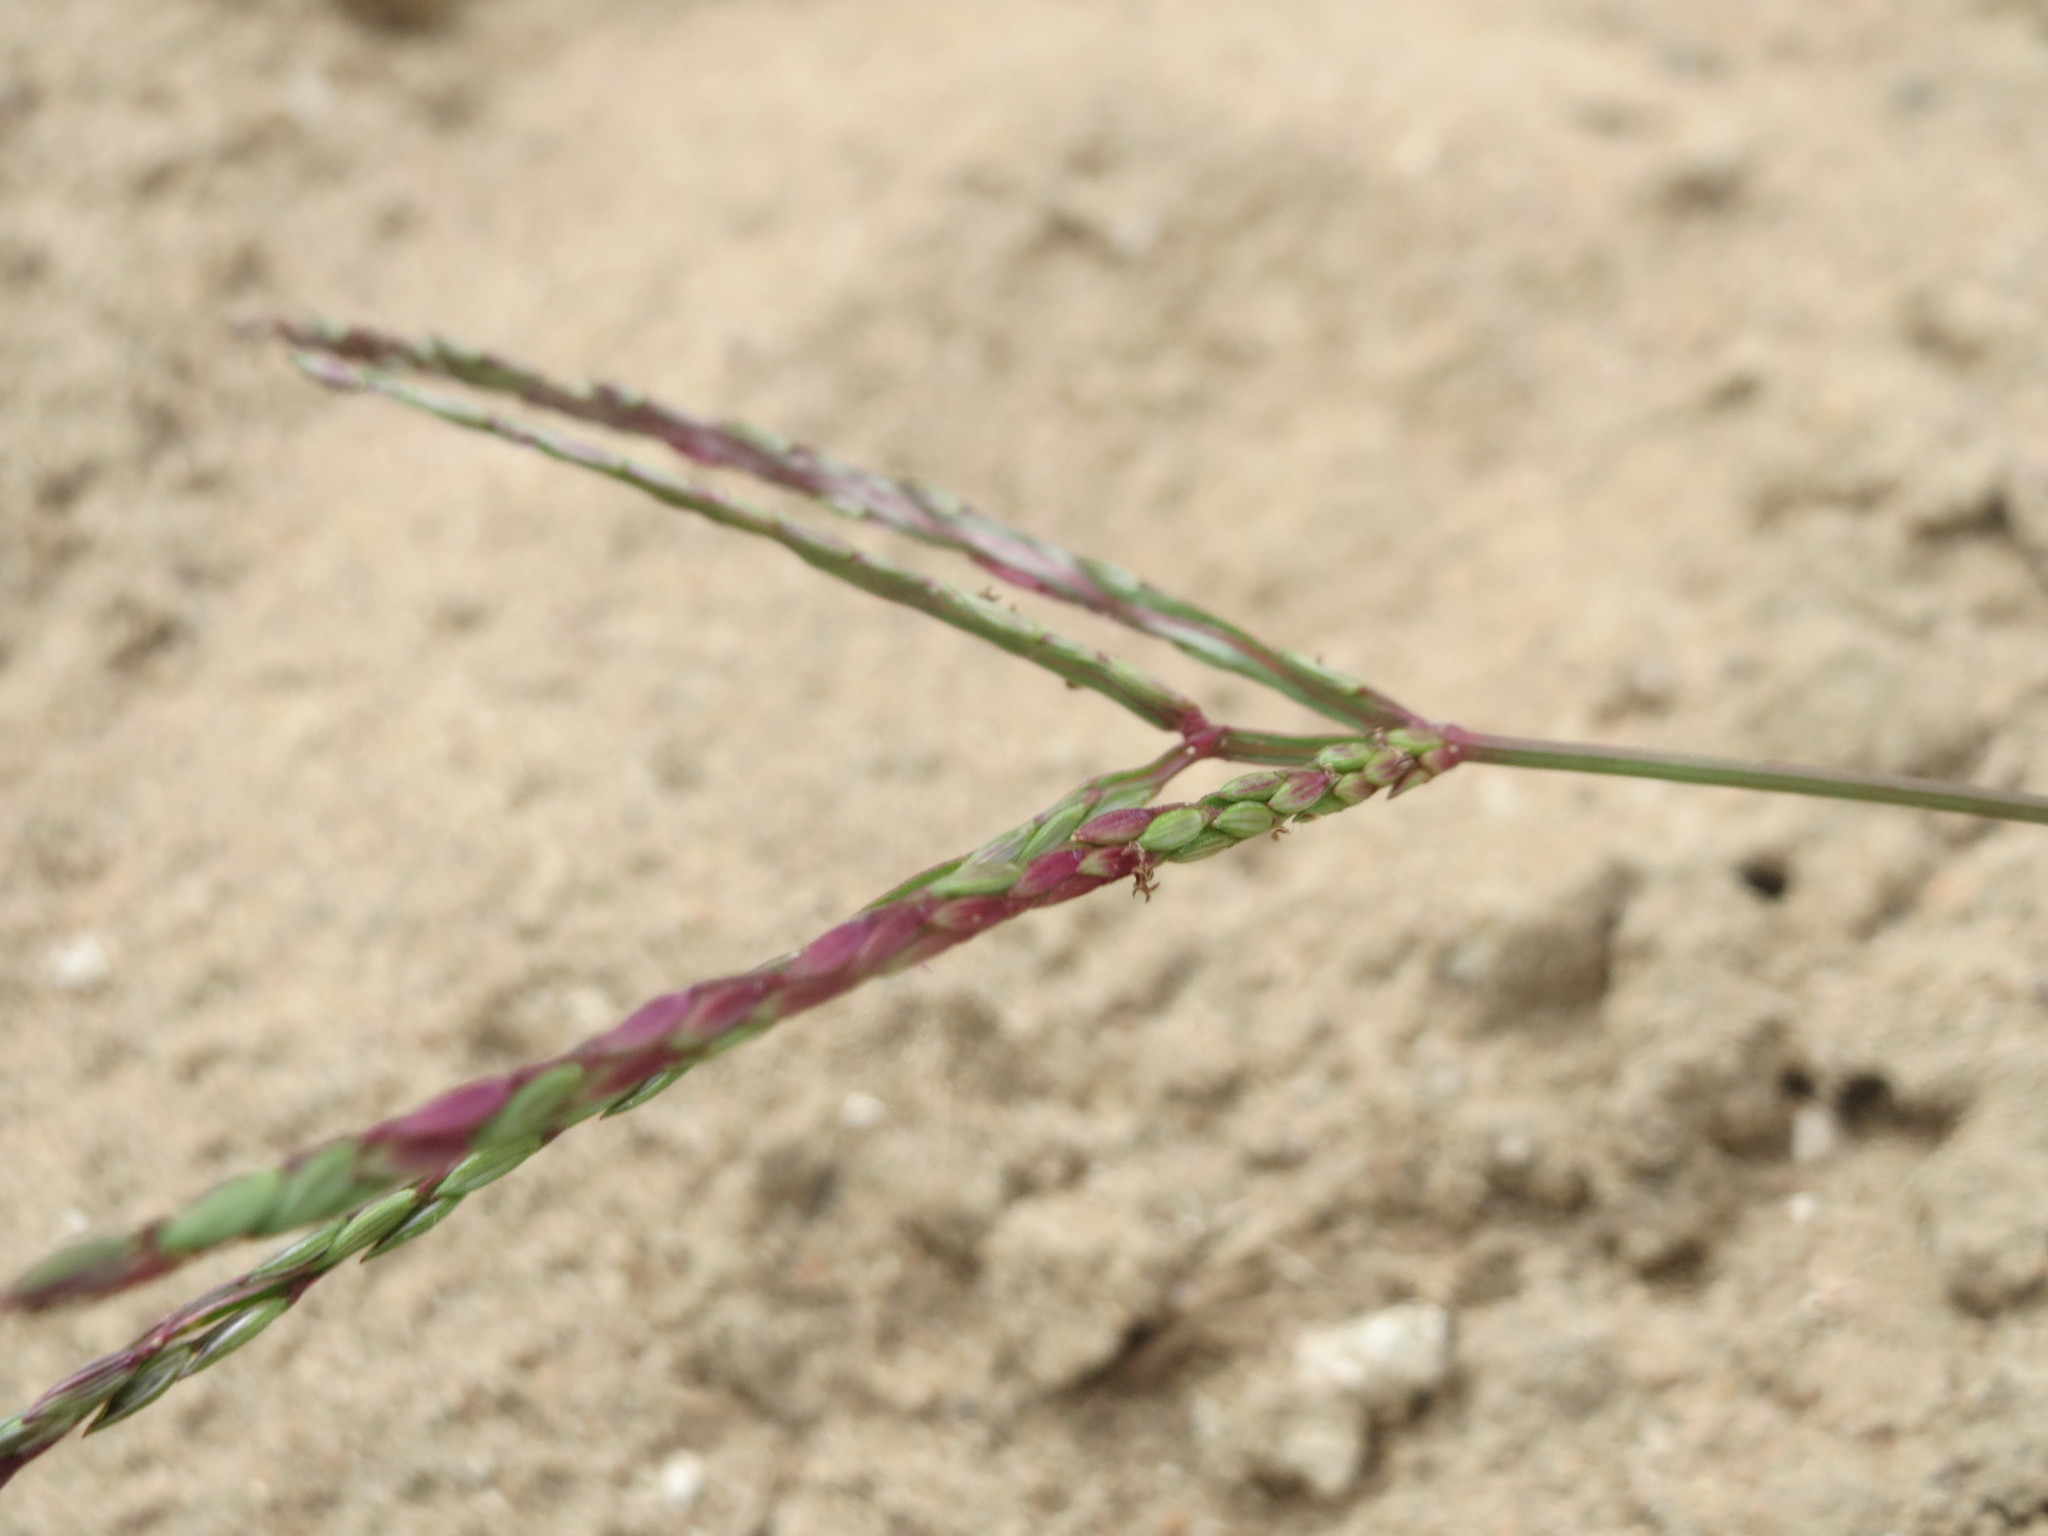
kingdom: Plantae
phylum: Tracheophyta
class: Liliopsida
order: Poales
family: Poaceae
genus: Digitaria
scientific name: Digitaria sanguinalis
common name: Hairy crabgrass
